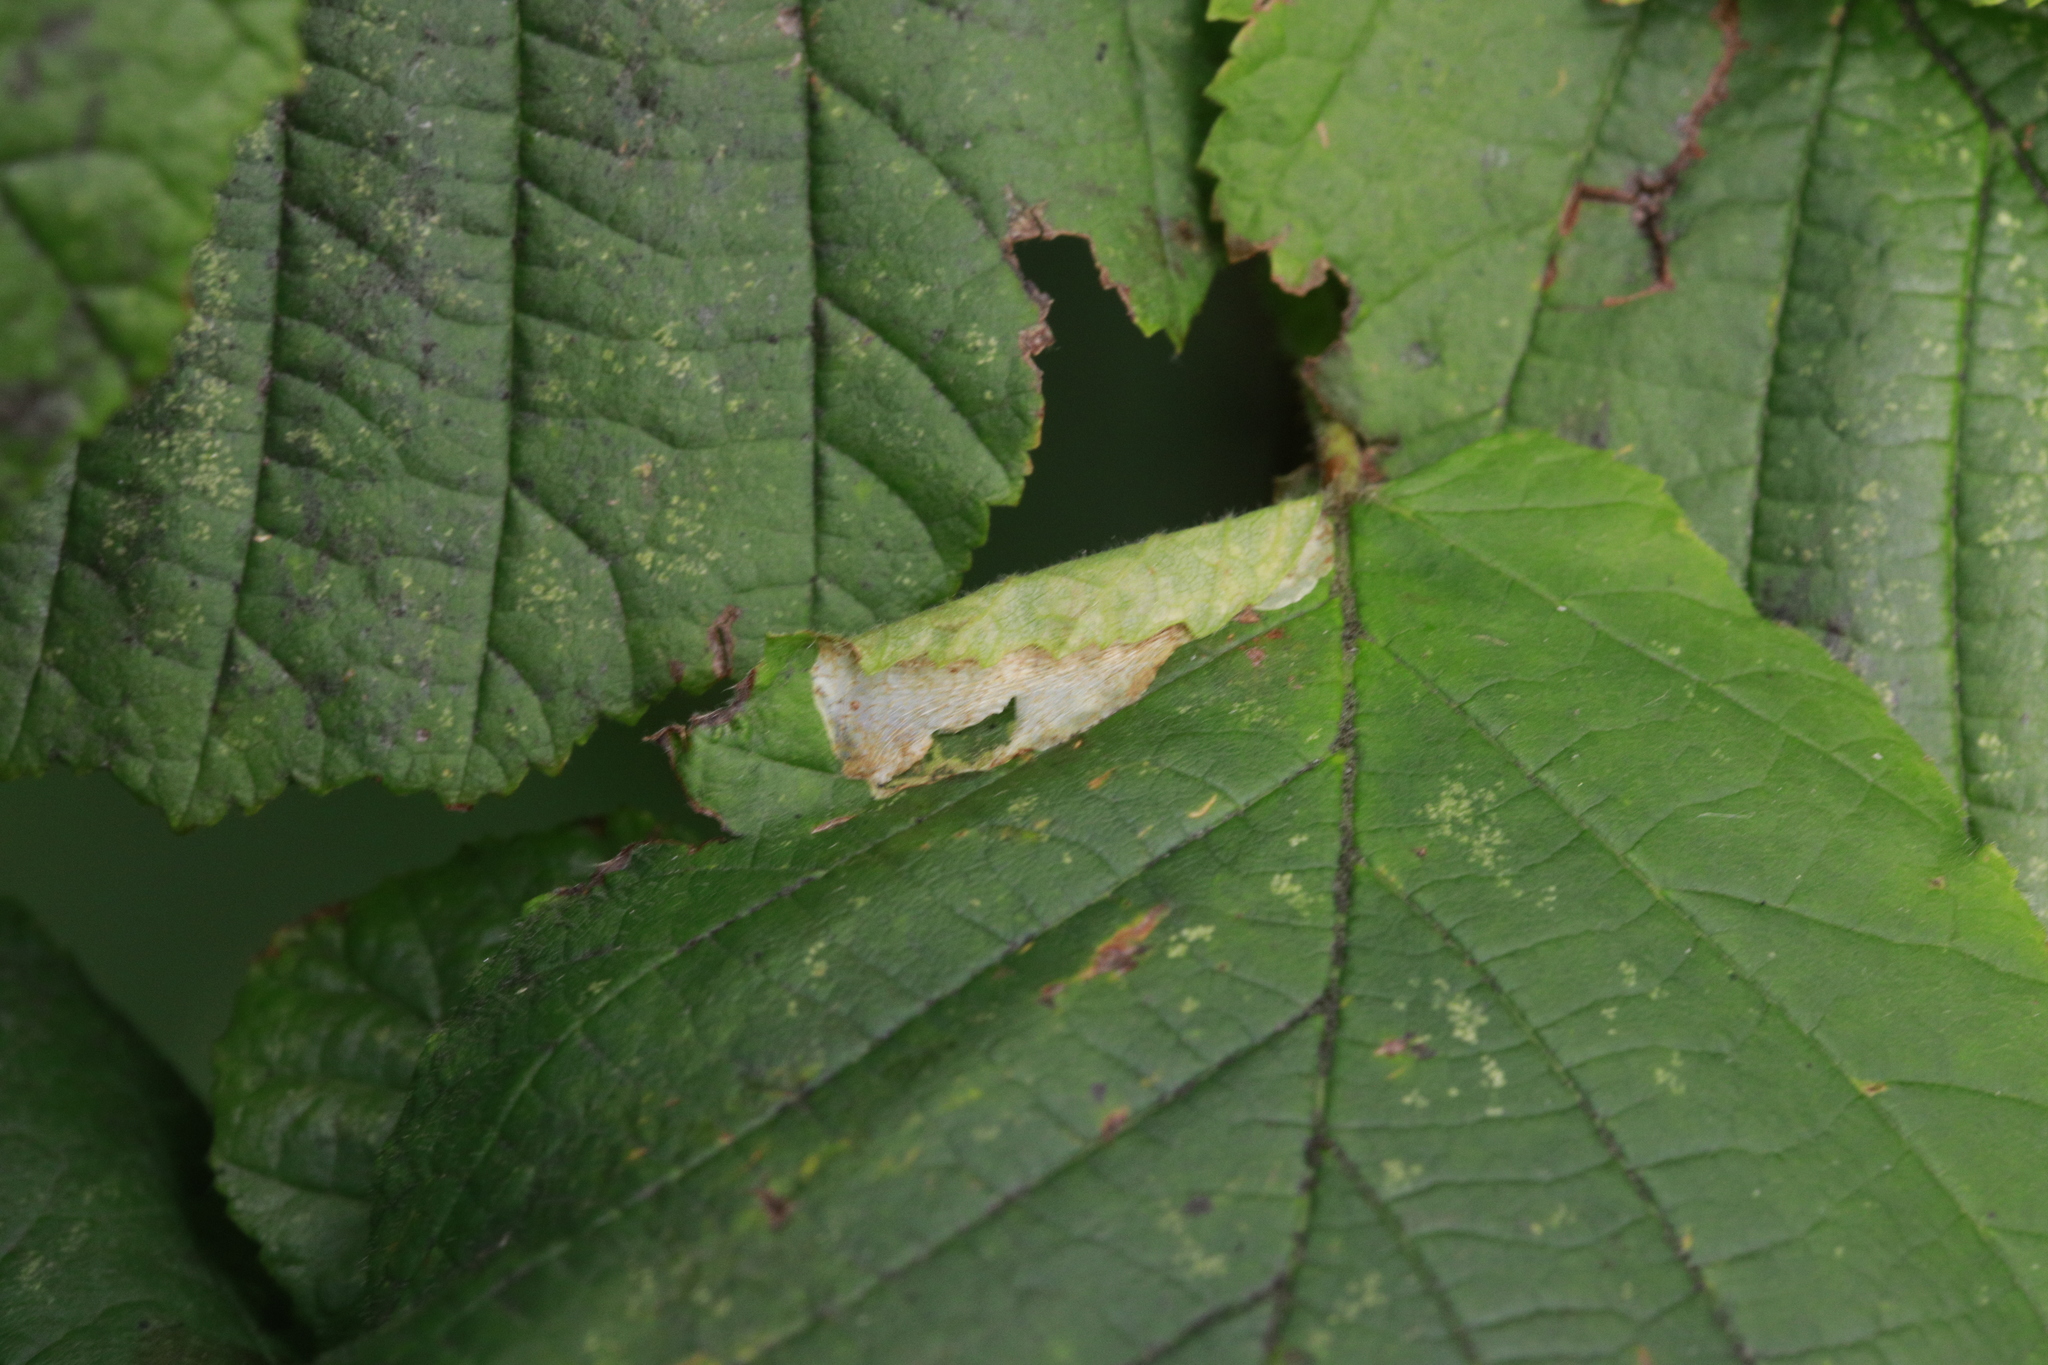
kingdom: Animalia
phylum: Arthropoda
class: Insecta
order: Lepidoptera
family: Gracillariidae
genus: Parornix
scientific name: Parornix devoniella
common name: Hazel slender
